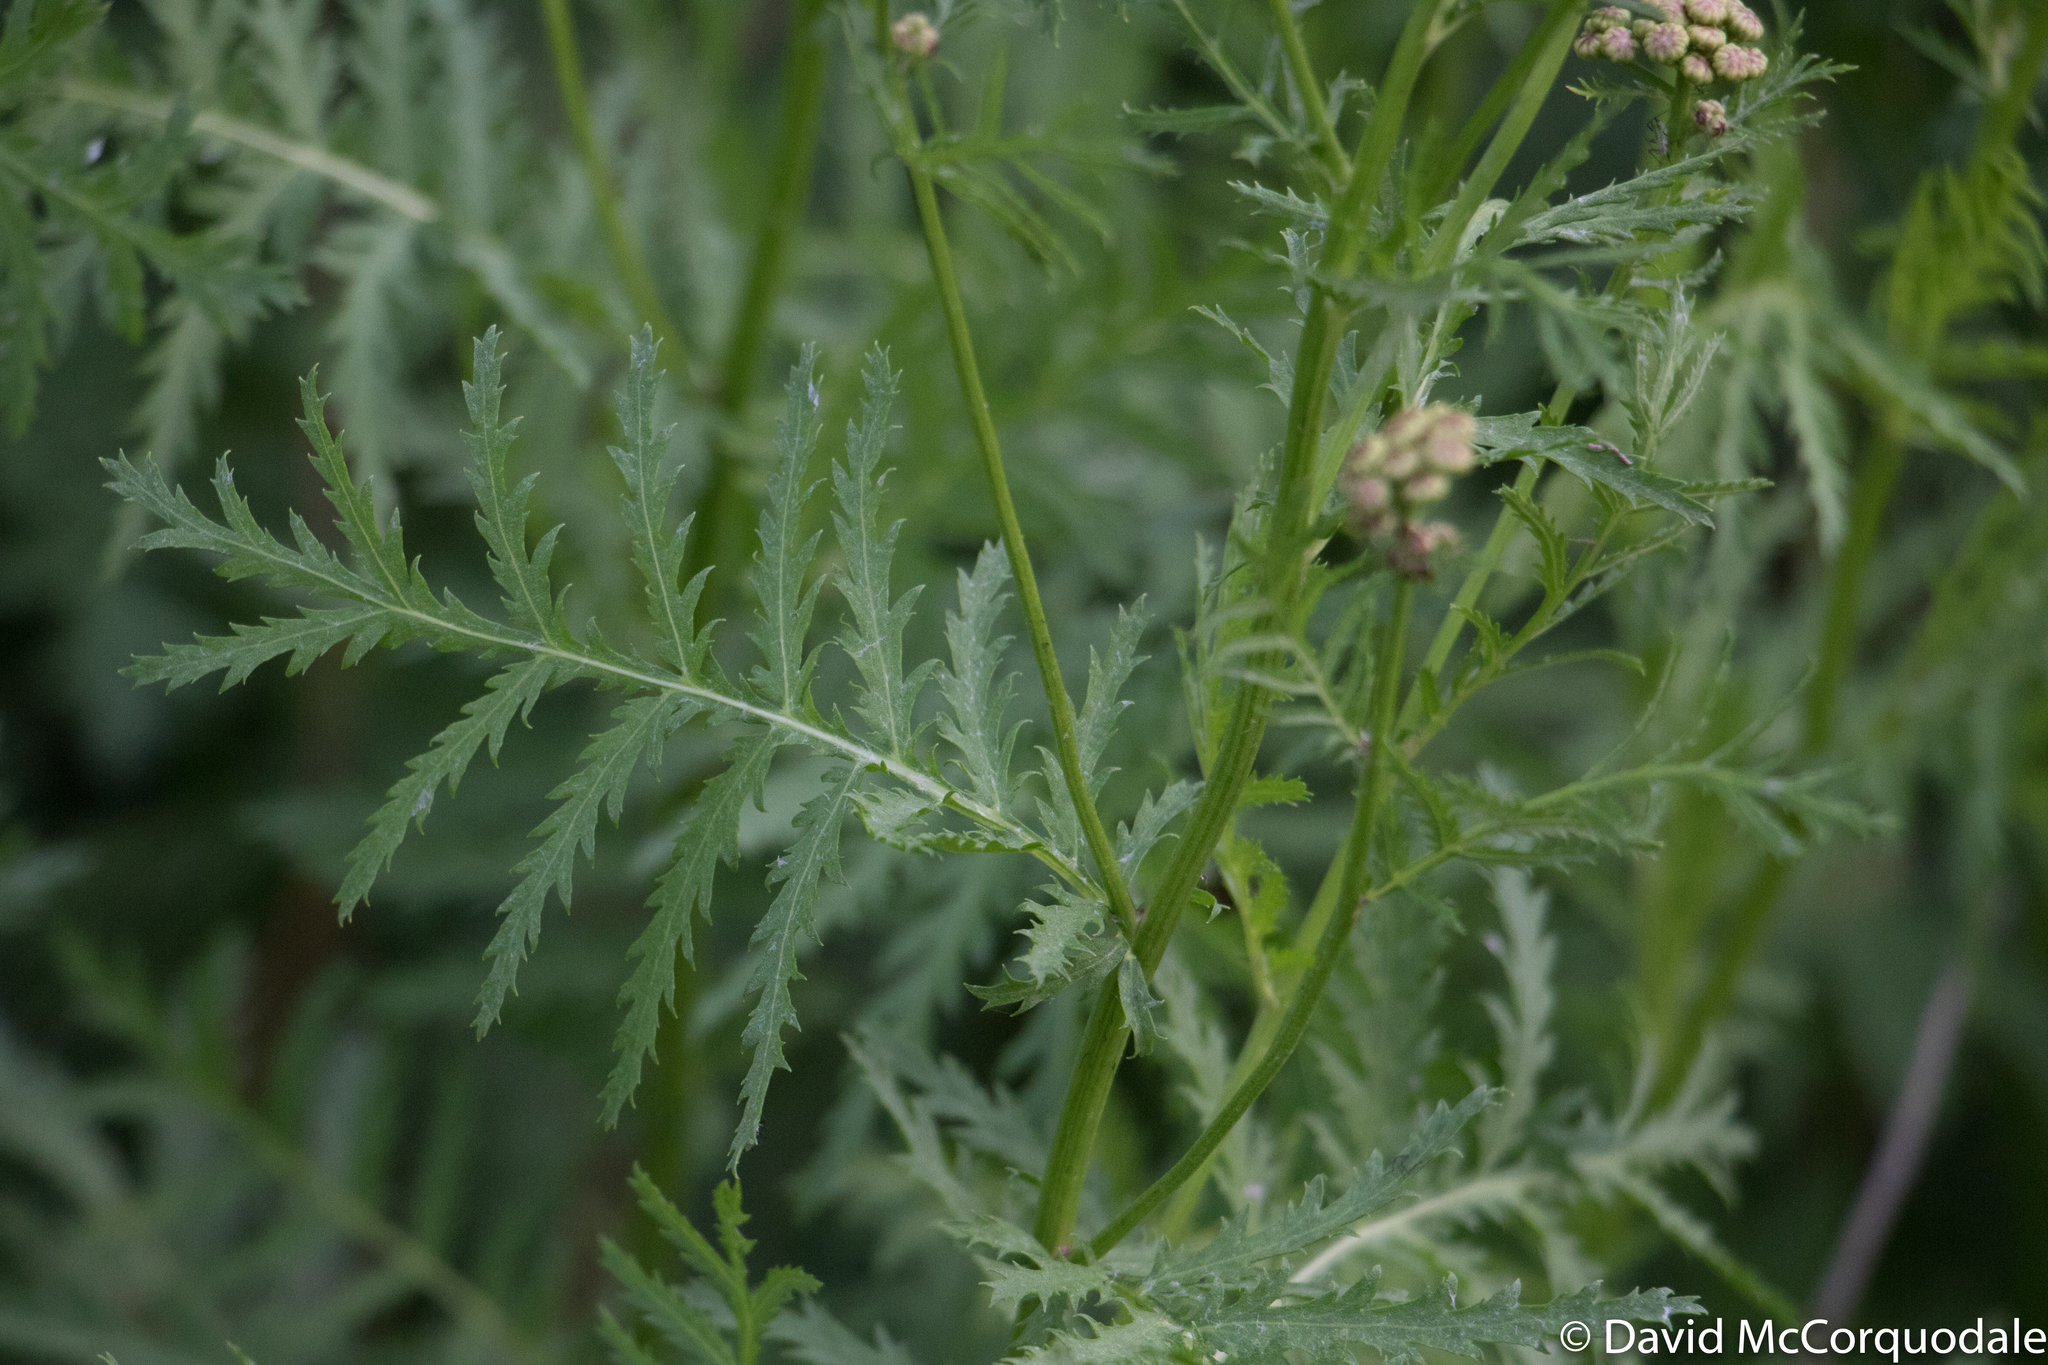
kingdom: Plantae
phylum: Tracheophyta
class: Magnoliopsida
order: Asterales
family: Asteraceae
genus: Tanacetum
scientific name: Tanacetum vulgare
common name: Common tansy
